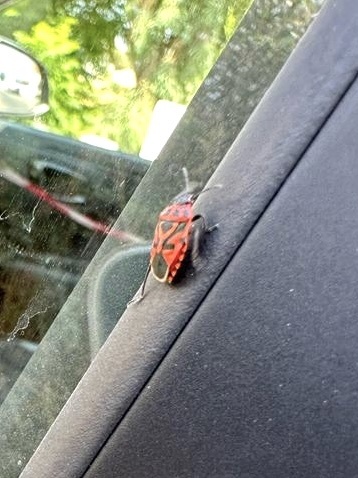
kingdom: Animalia
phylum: Arthropoda
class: Insecta
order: Hemiptera
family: Pentatomidae
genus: Eurydema
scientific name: Eurydema ornata
